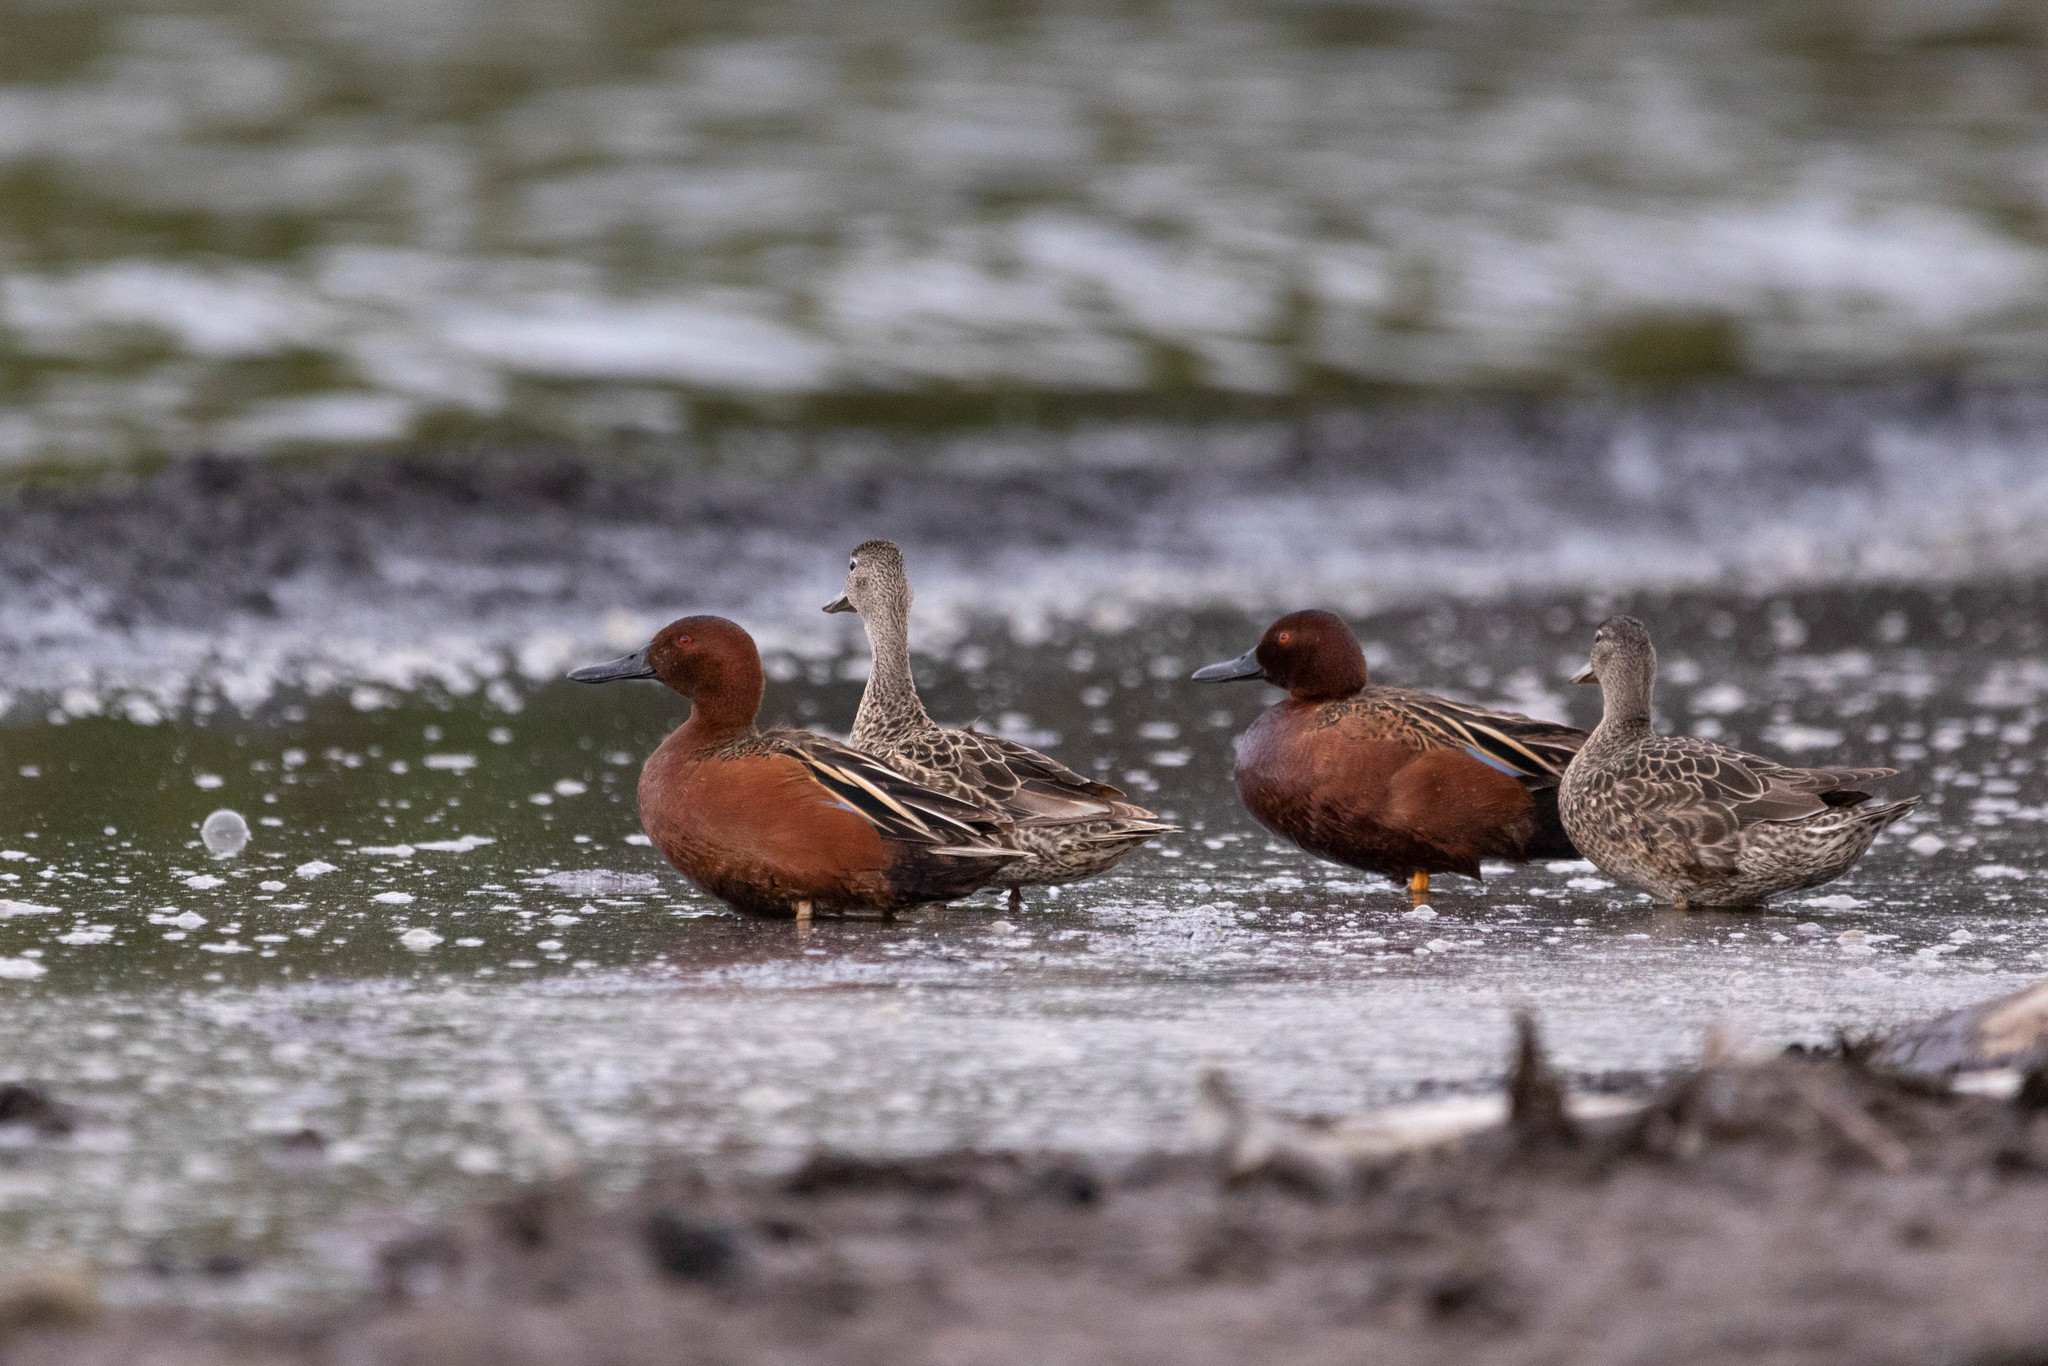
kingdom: Animalia
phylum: Chordata
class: Aves
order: Anseriformes
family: Anatidae
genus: Spatula
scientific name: Spatula cyanoptera
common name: Cinnamon teal
